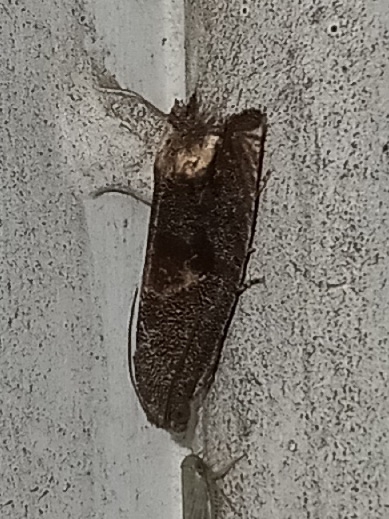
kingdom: Animalia
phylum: Arthropoda
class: Insecta
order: Lepidoptera
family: Tortricidae
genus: Epiblema
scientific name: Epiblema strenuana
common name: Ragweed borer moth
